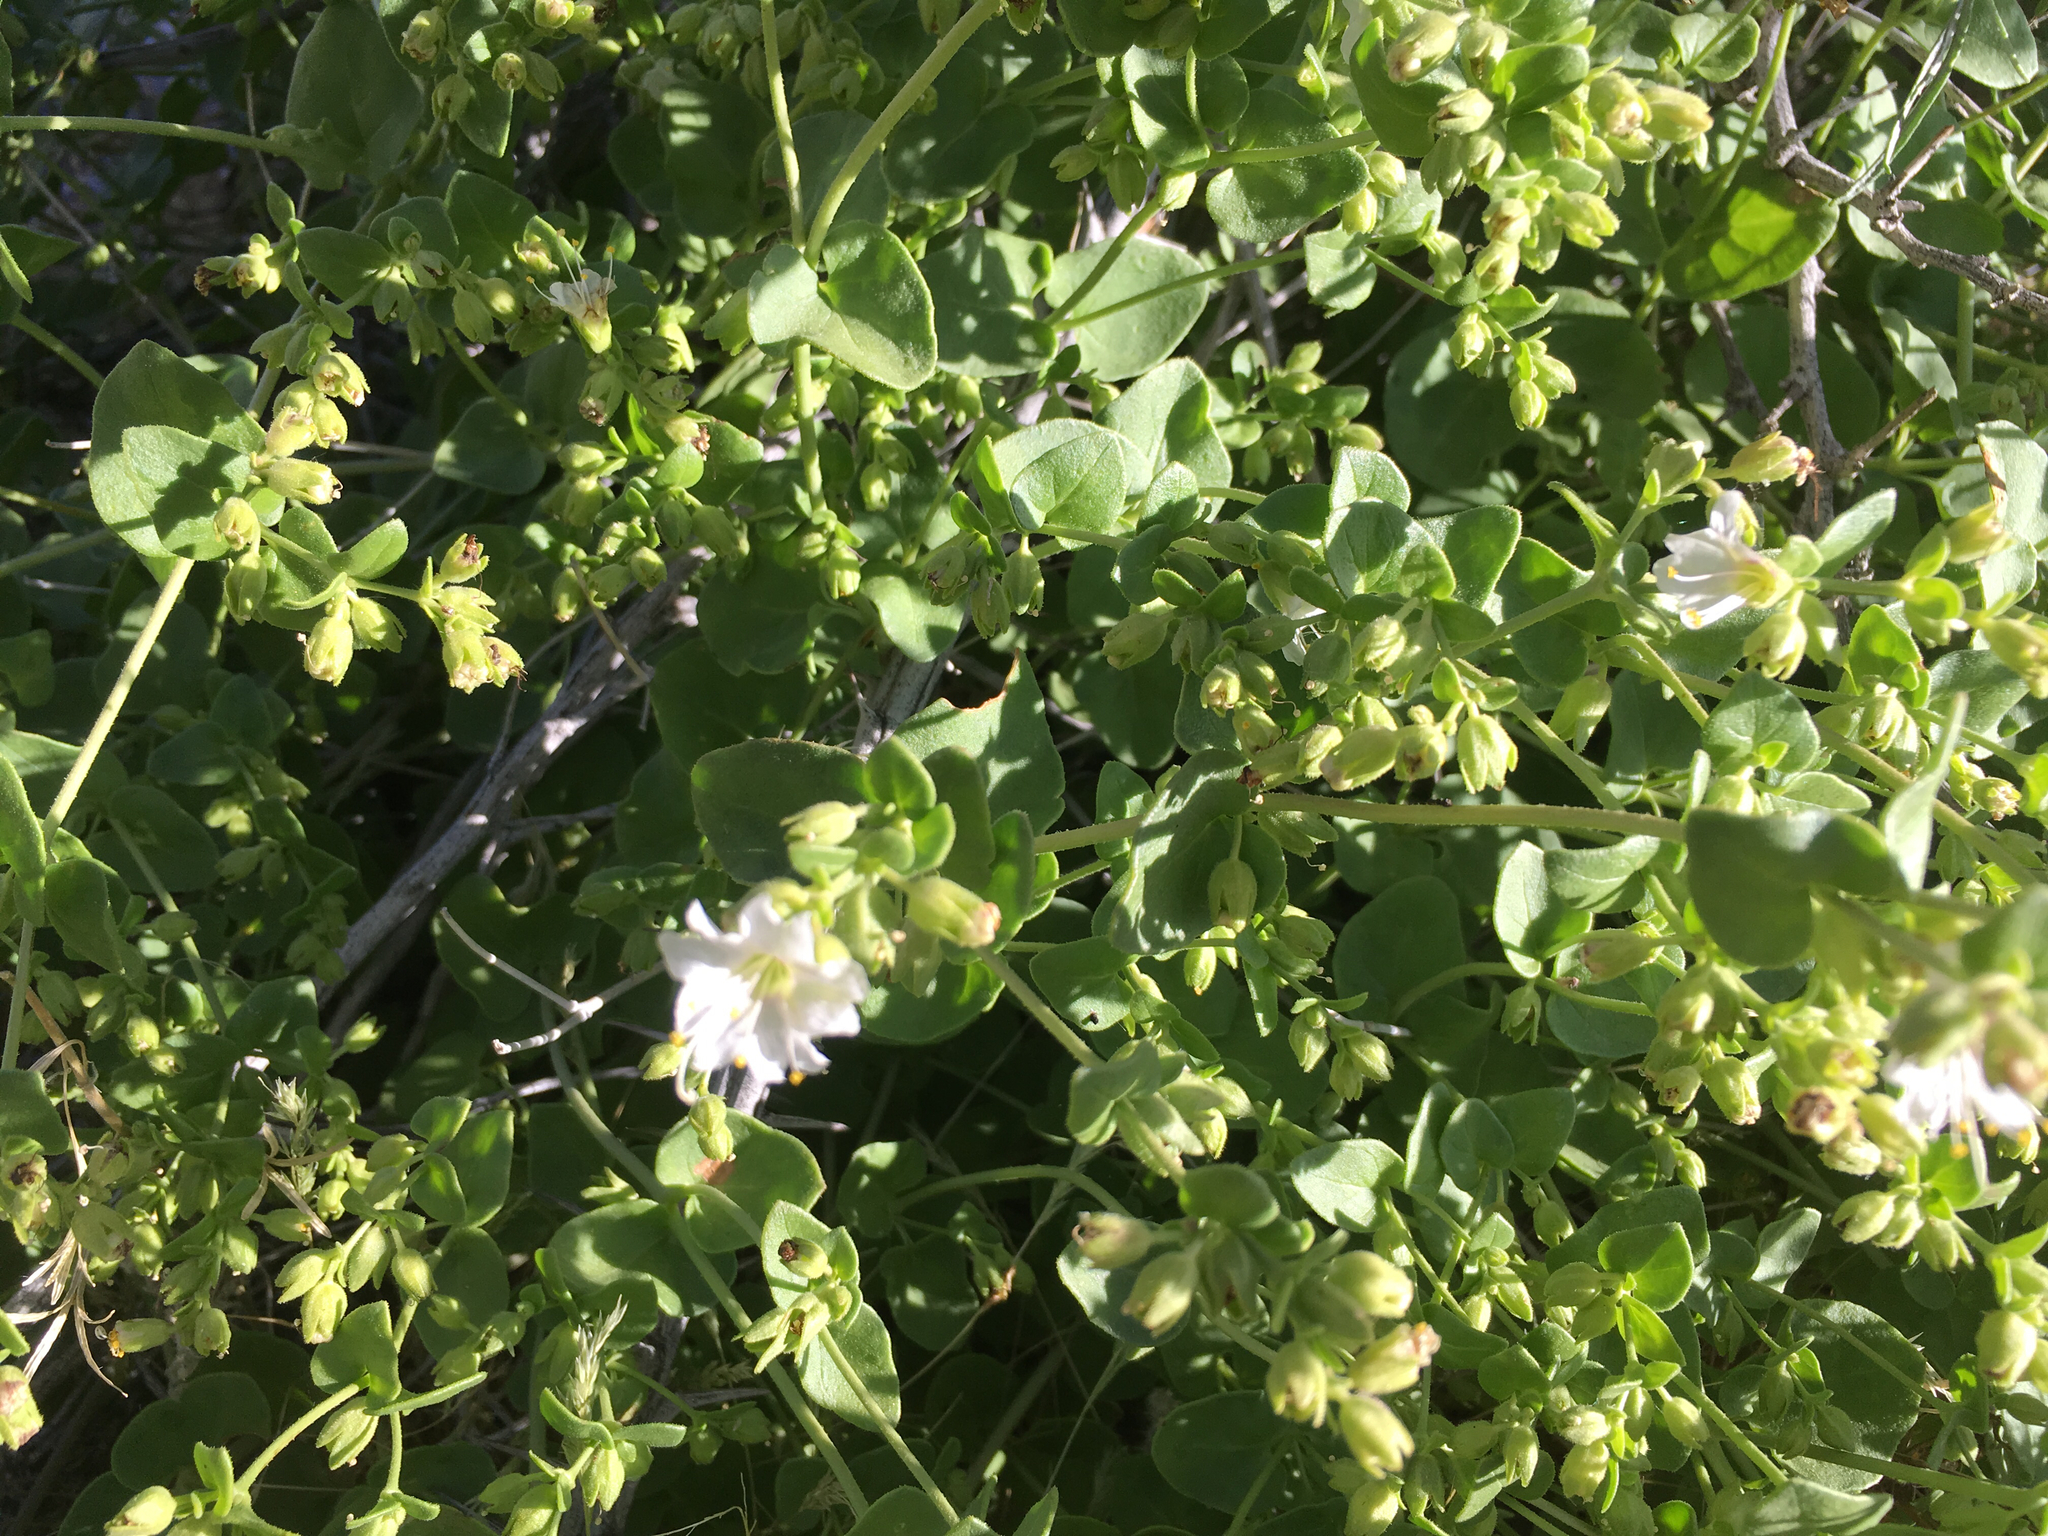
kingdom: Plantae
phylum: Tracheophyta
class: Magnoliopsida
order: Caryophyllales
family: Nyctaginaceae
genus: Mirabilis
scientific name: Mirabilis laevis
